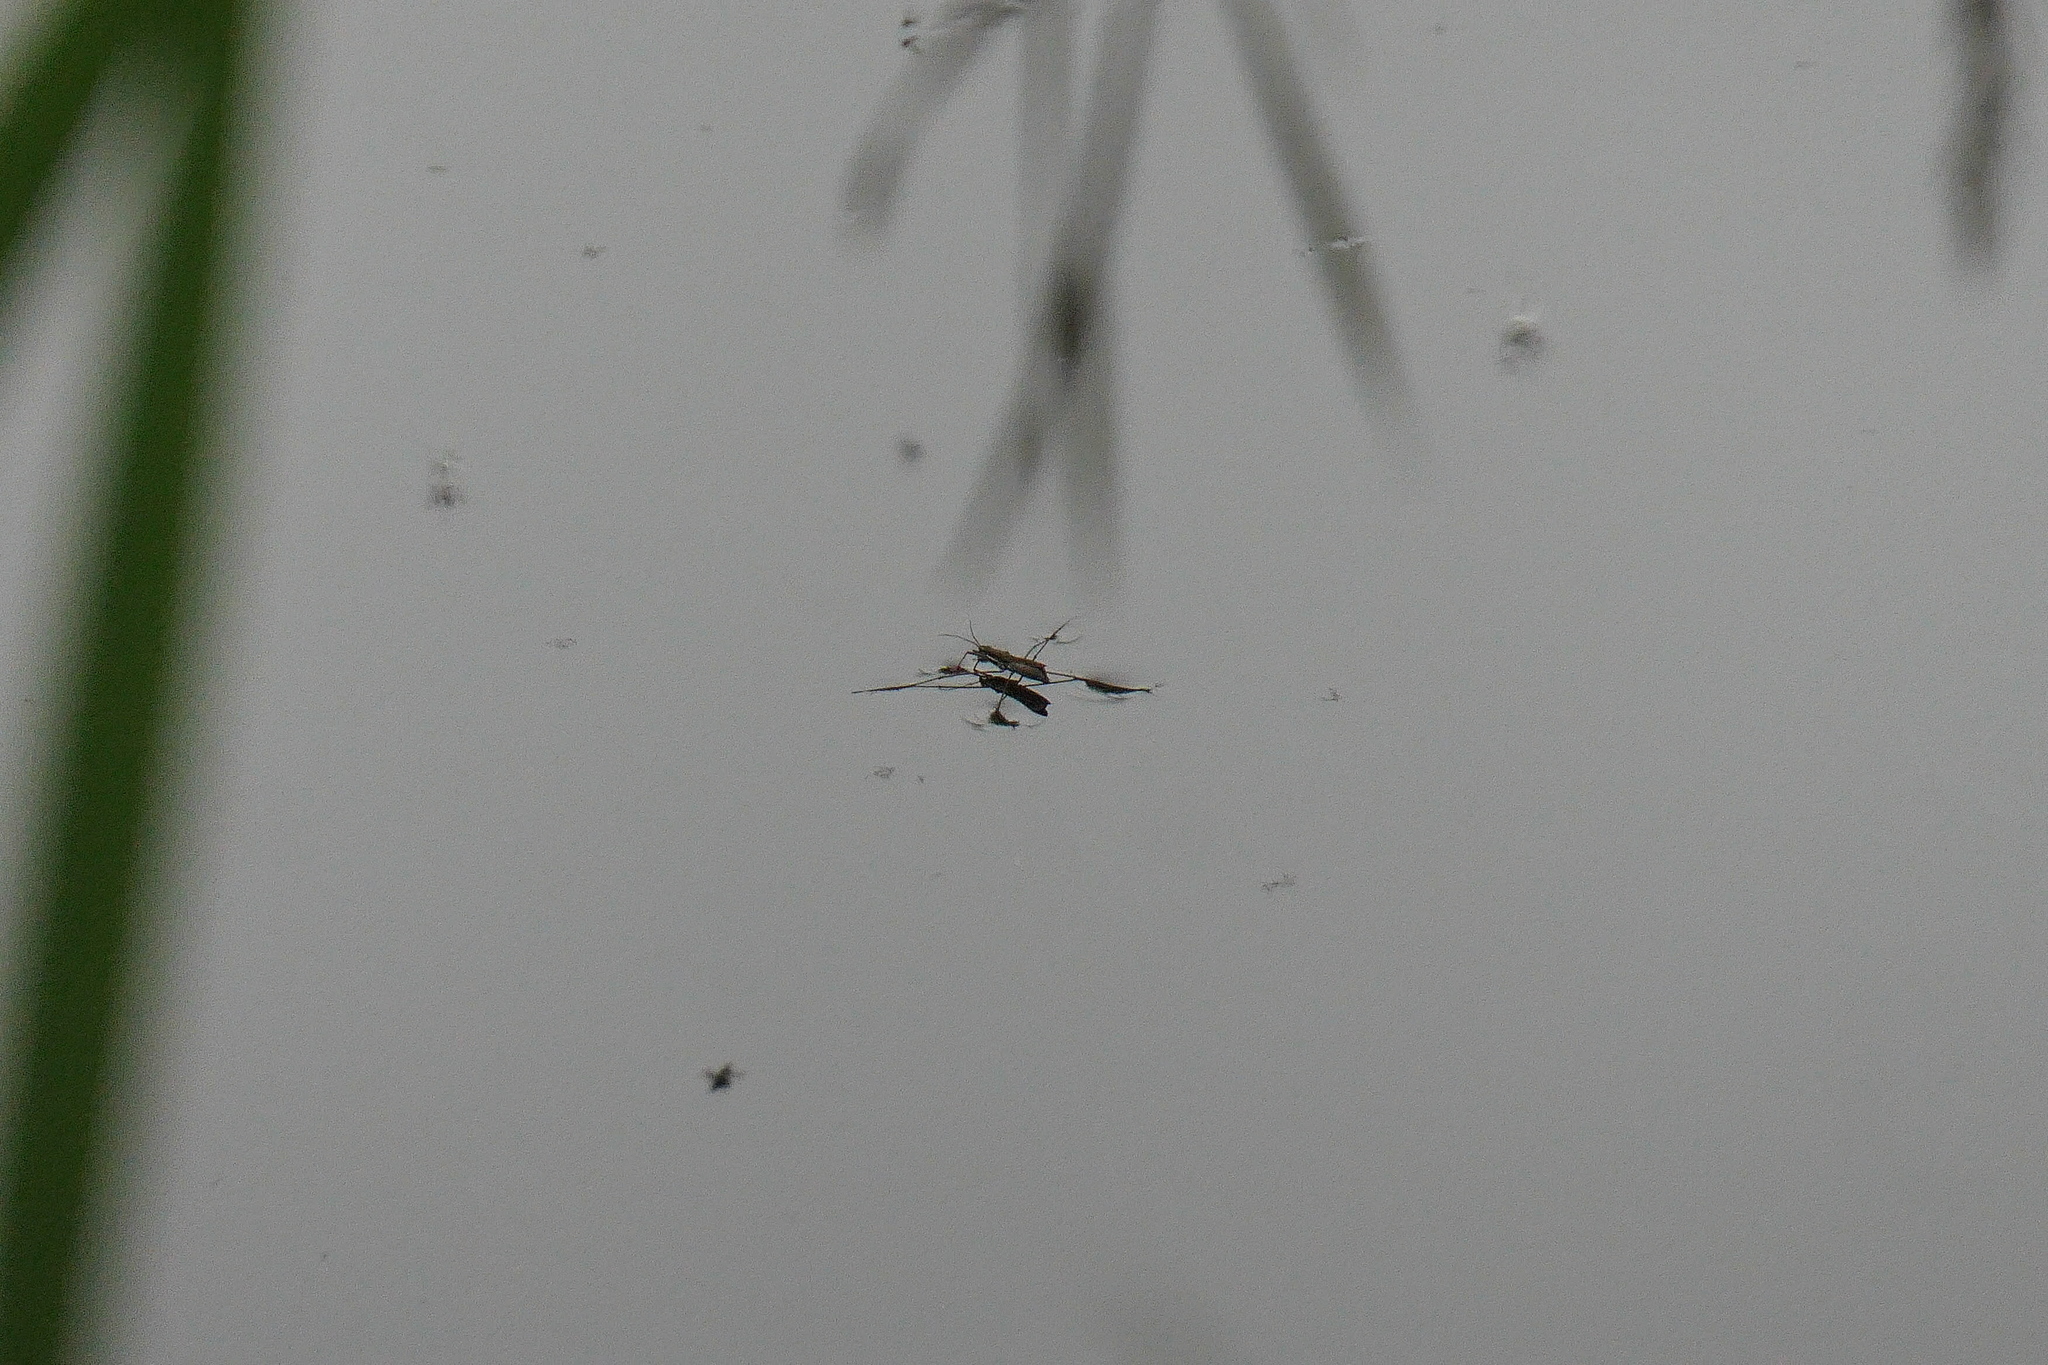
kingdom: Animalia
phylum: Arthropoda
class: Insecta
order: Hemiptera
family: Gerridae
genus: Limnoporus
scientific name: Limnoporus notabilis
